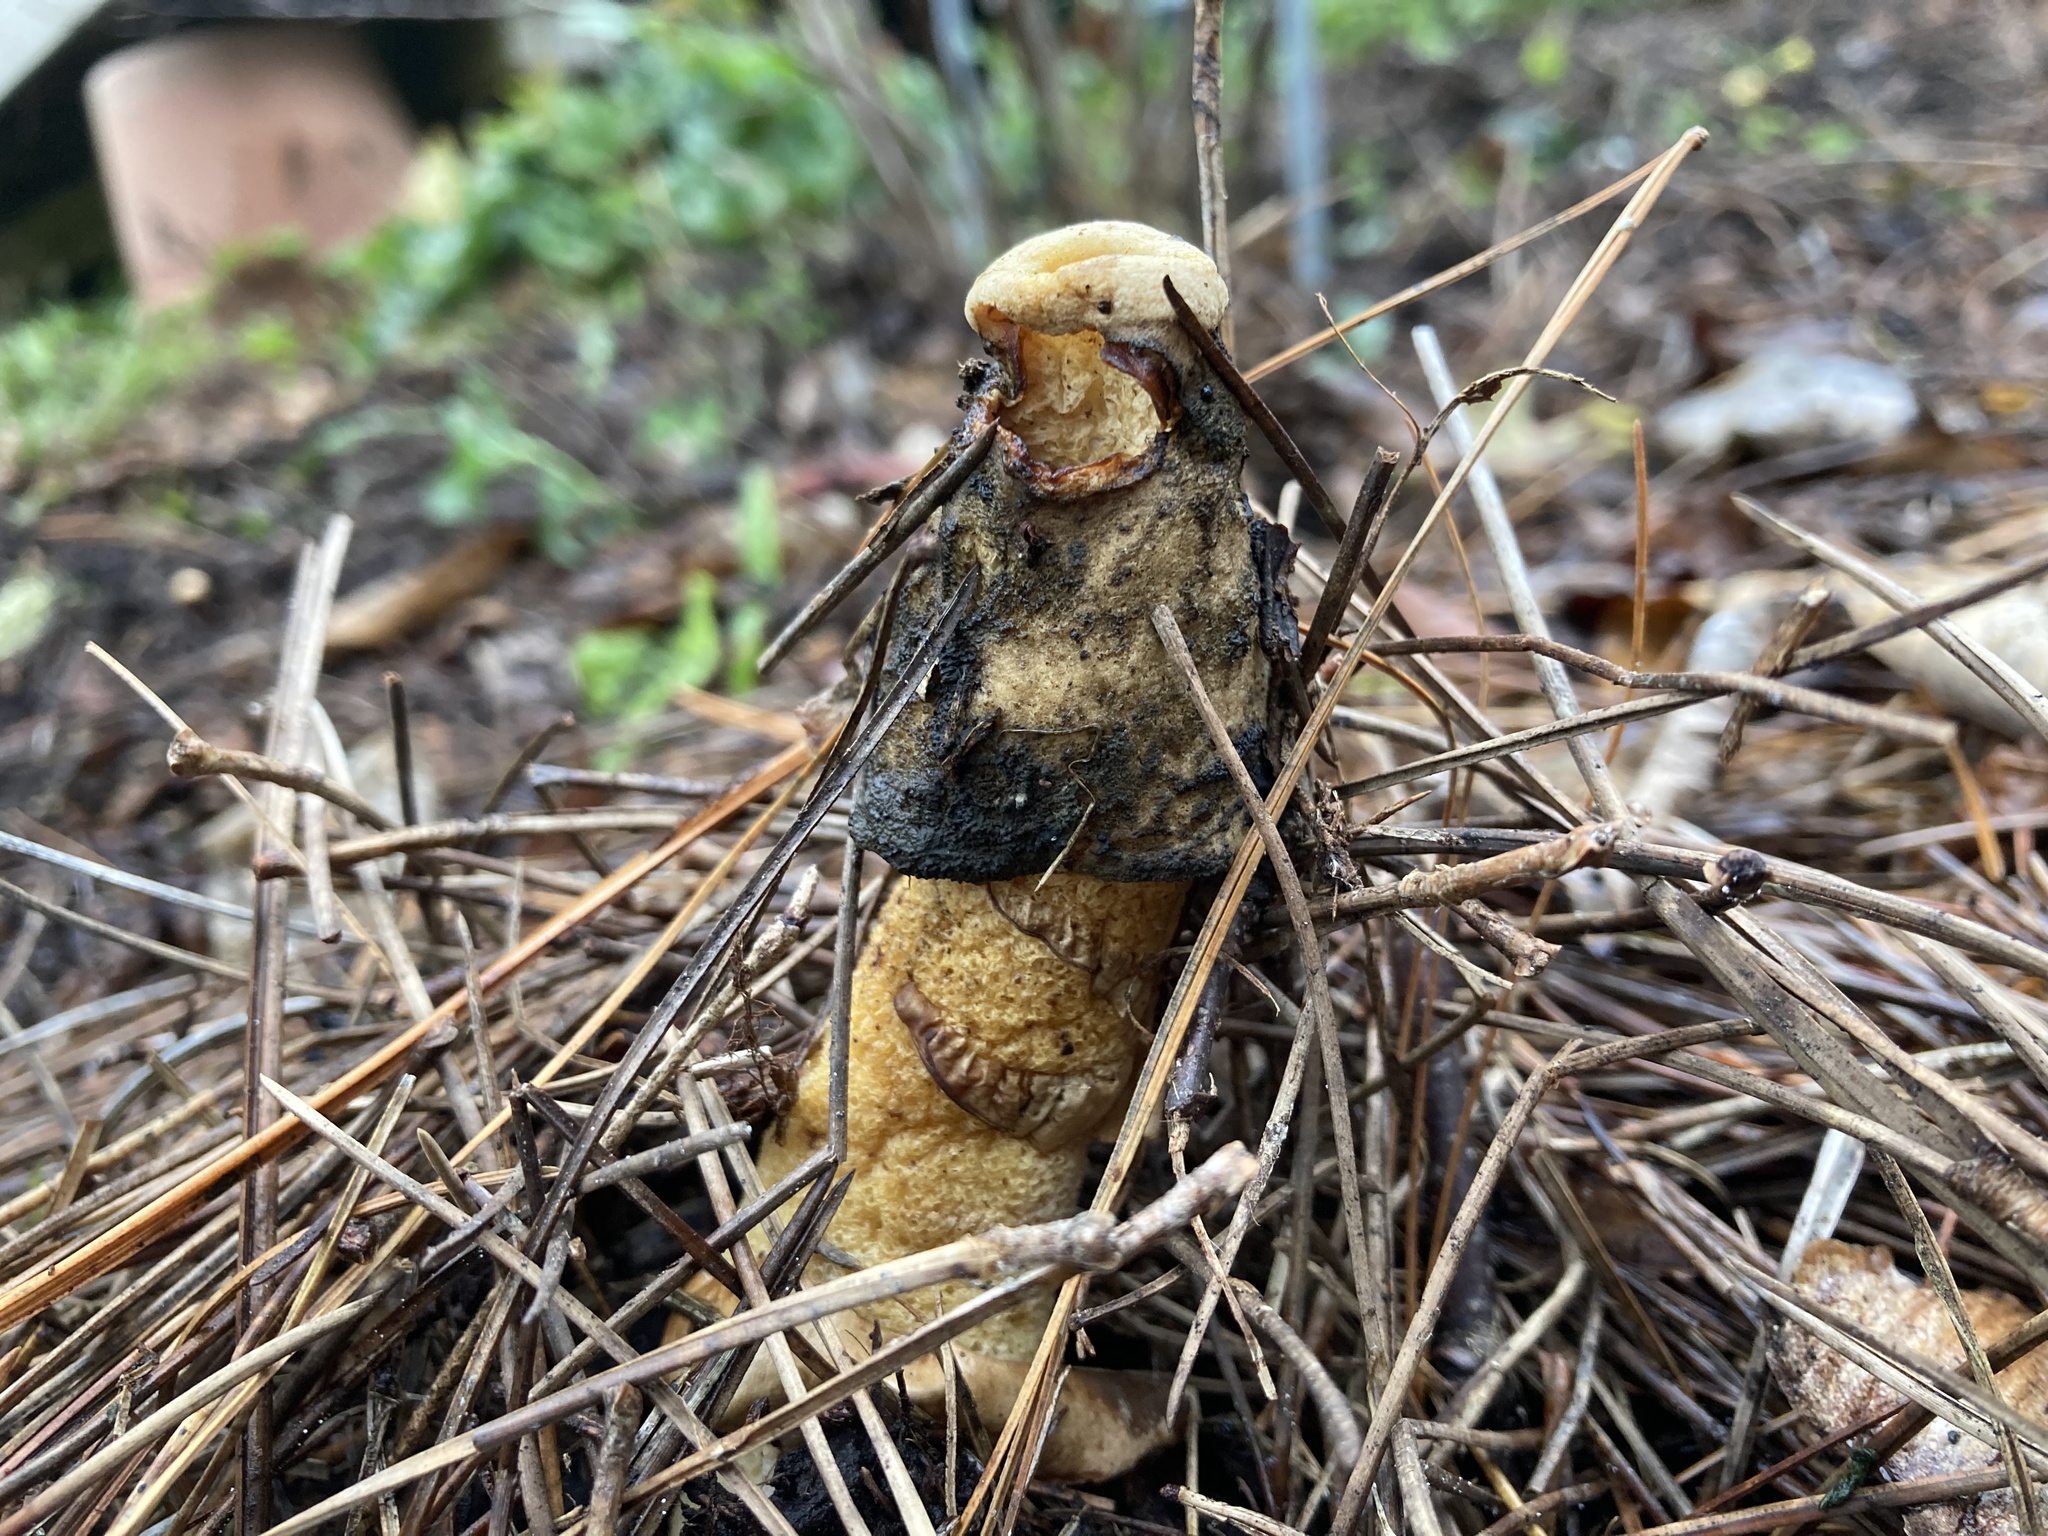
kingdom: Fungi
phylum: Basidiomycota
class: Agaricomycetes
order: Phallales
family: Phallaceae
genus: Phallus
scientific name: Phallus ravenelii
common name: Ravenel's stinkhorn
